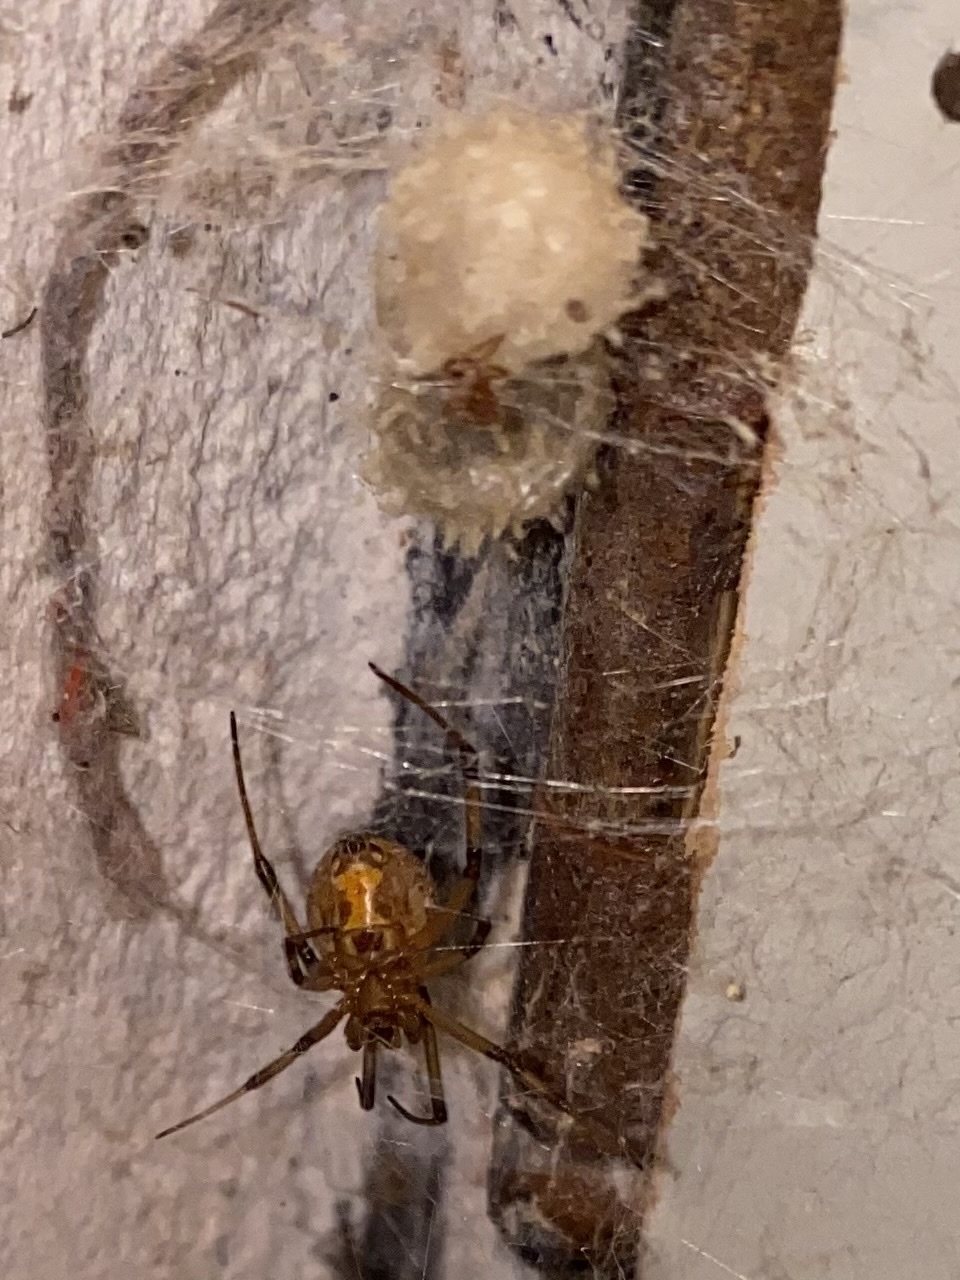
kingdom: Animalia
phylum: Arthropoda
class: Arachnida
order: Araneae
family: Theridiidae
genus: Latrodectus
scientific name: Latrodectus geometricus
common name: Brown widow spider
